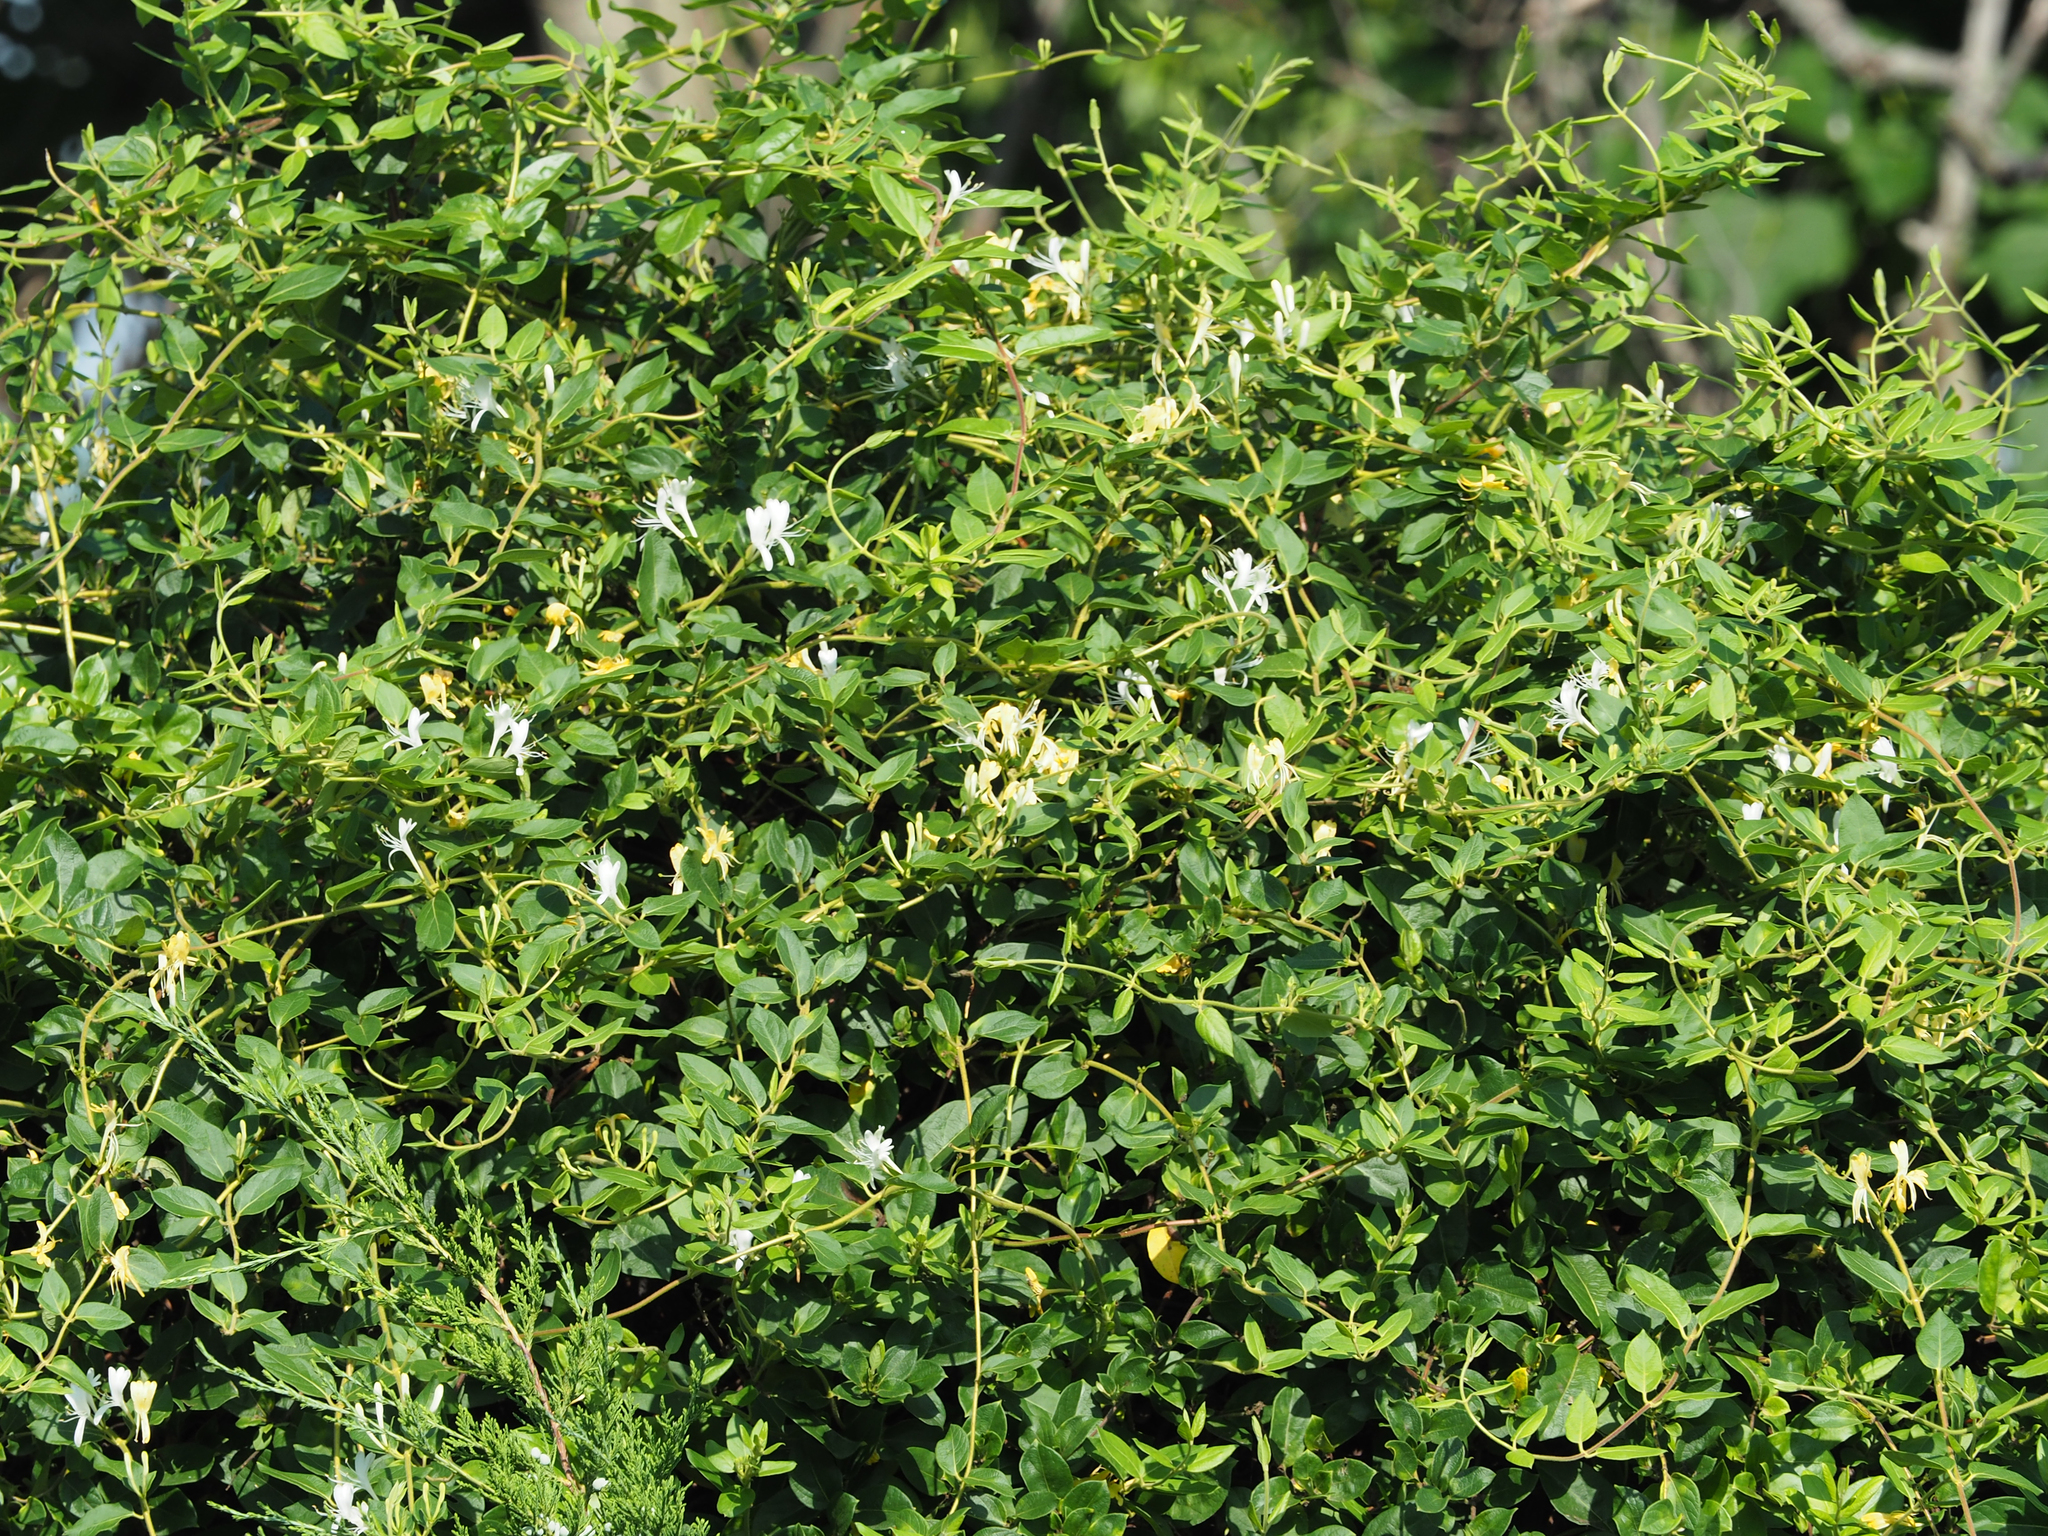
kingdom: Plantae
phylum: Tracheophyta
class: Magnoliopsida
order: Dipsacales
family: Caprifoliaceae
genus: Lonicera
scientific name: Lonicera japonica
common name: Japanese honeysuckle
